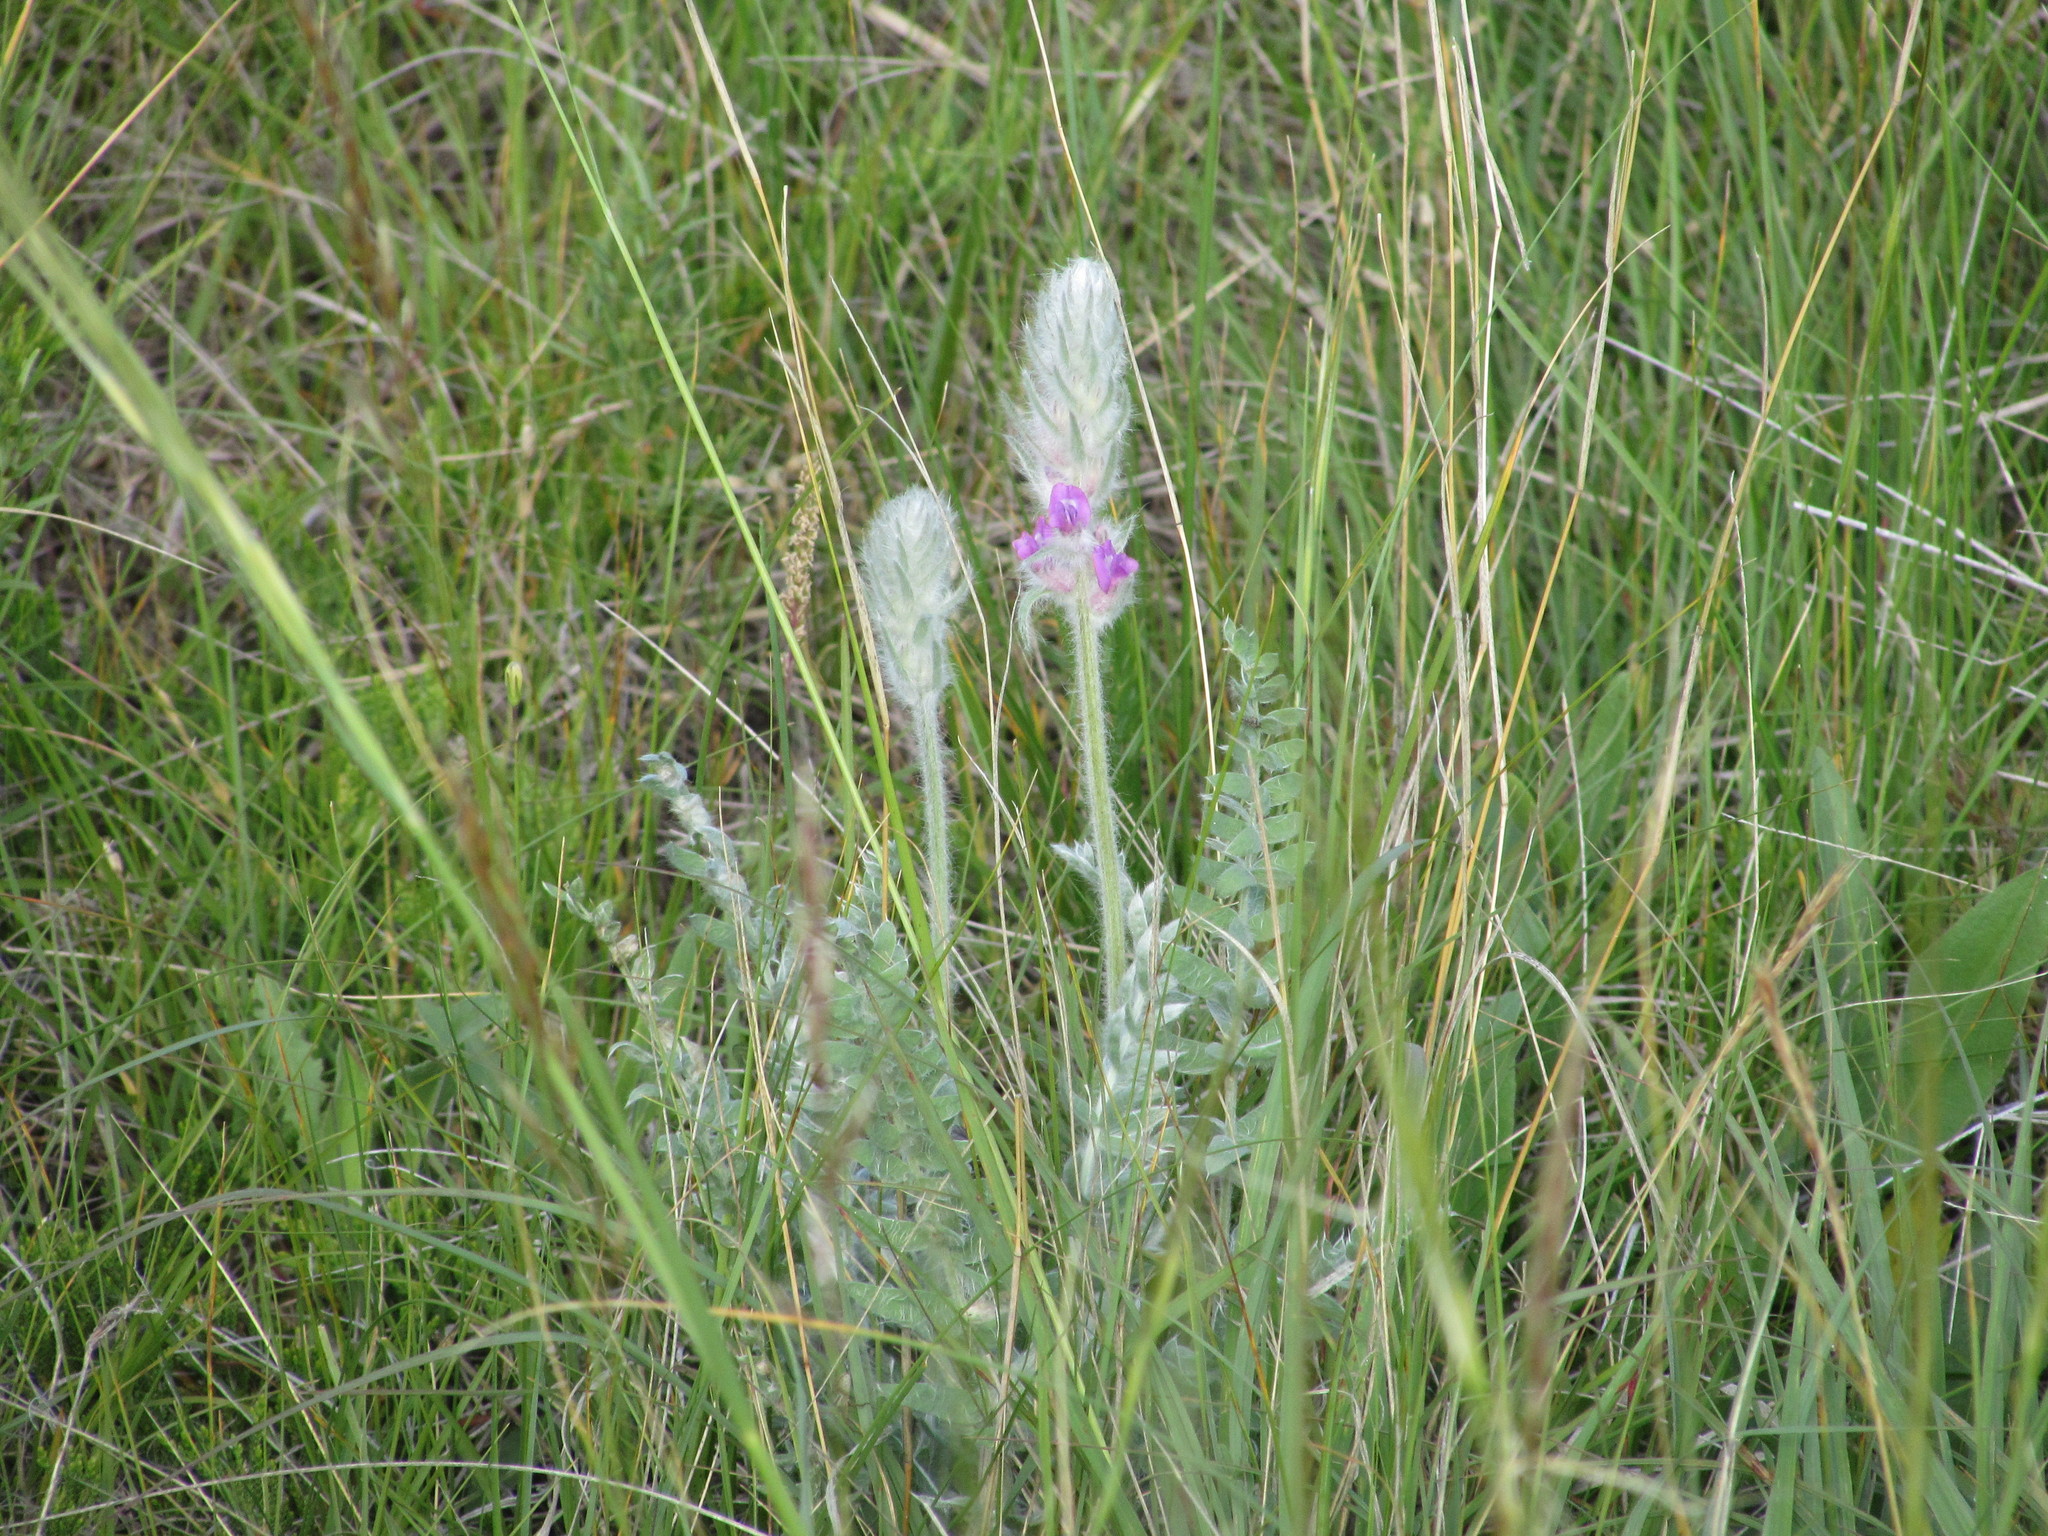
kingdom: Plantae
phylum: Tracheophyta
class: Magnoliopsida
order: Fabales
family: Fabaceae
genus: Oxytropis
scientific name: Oxytropis splendens
